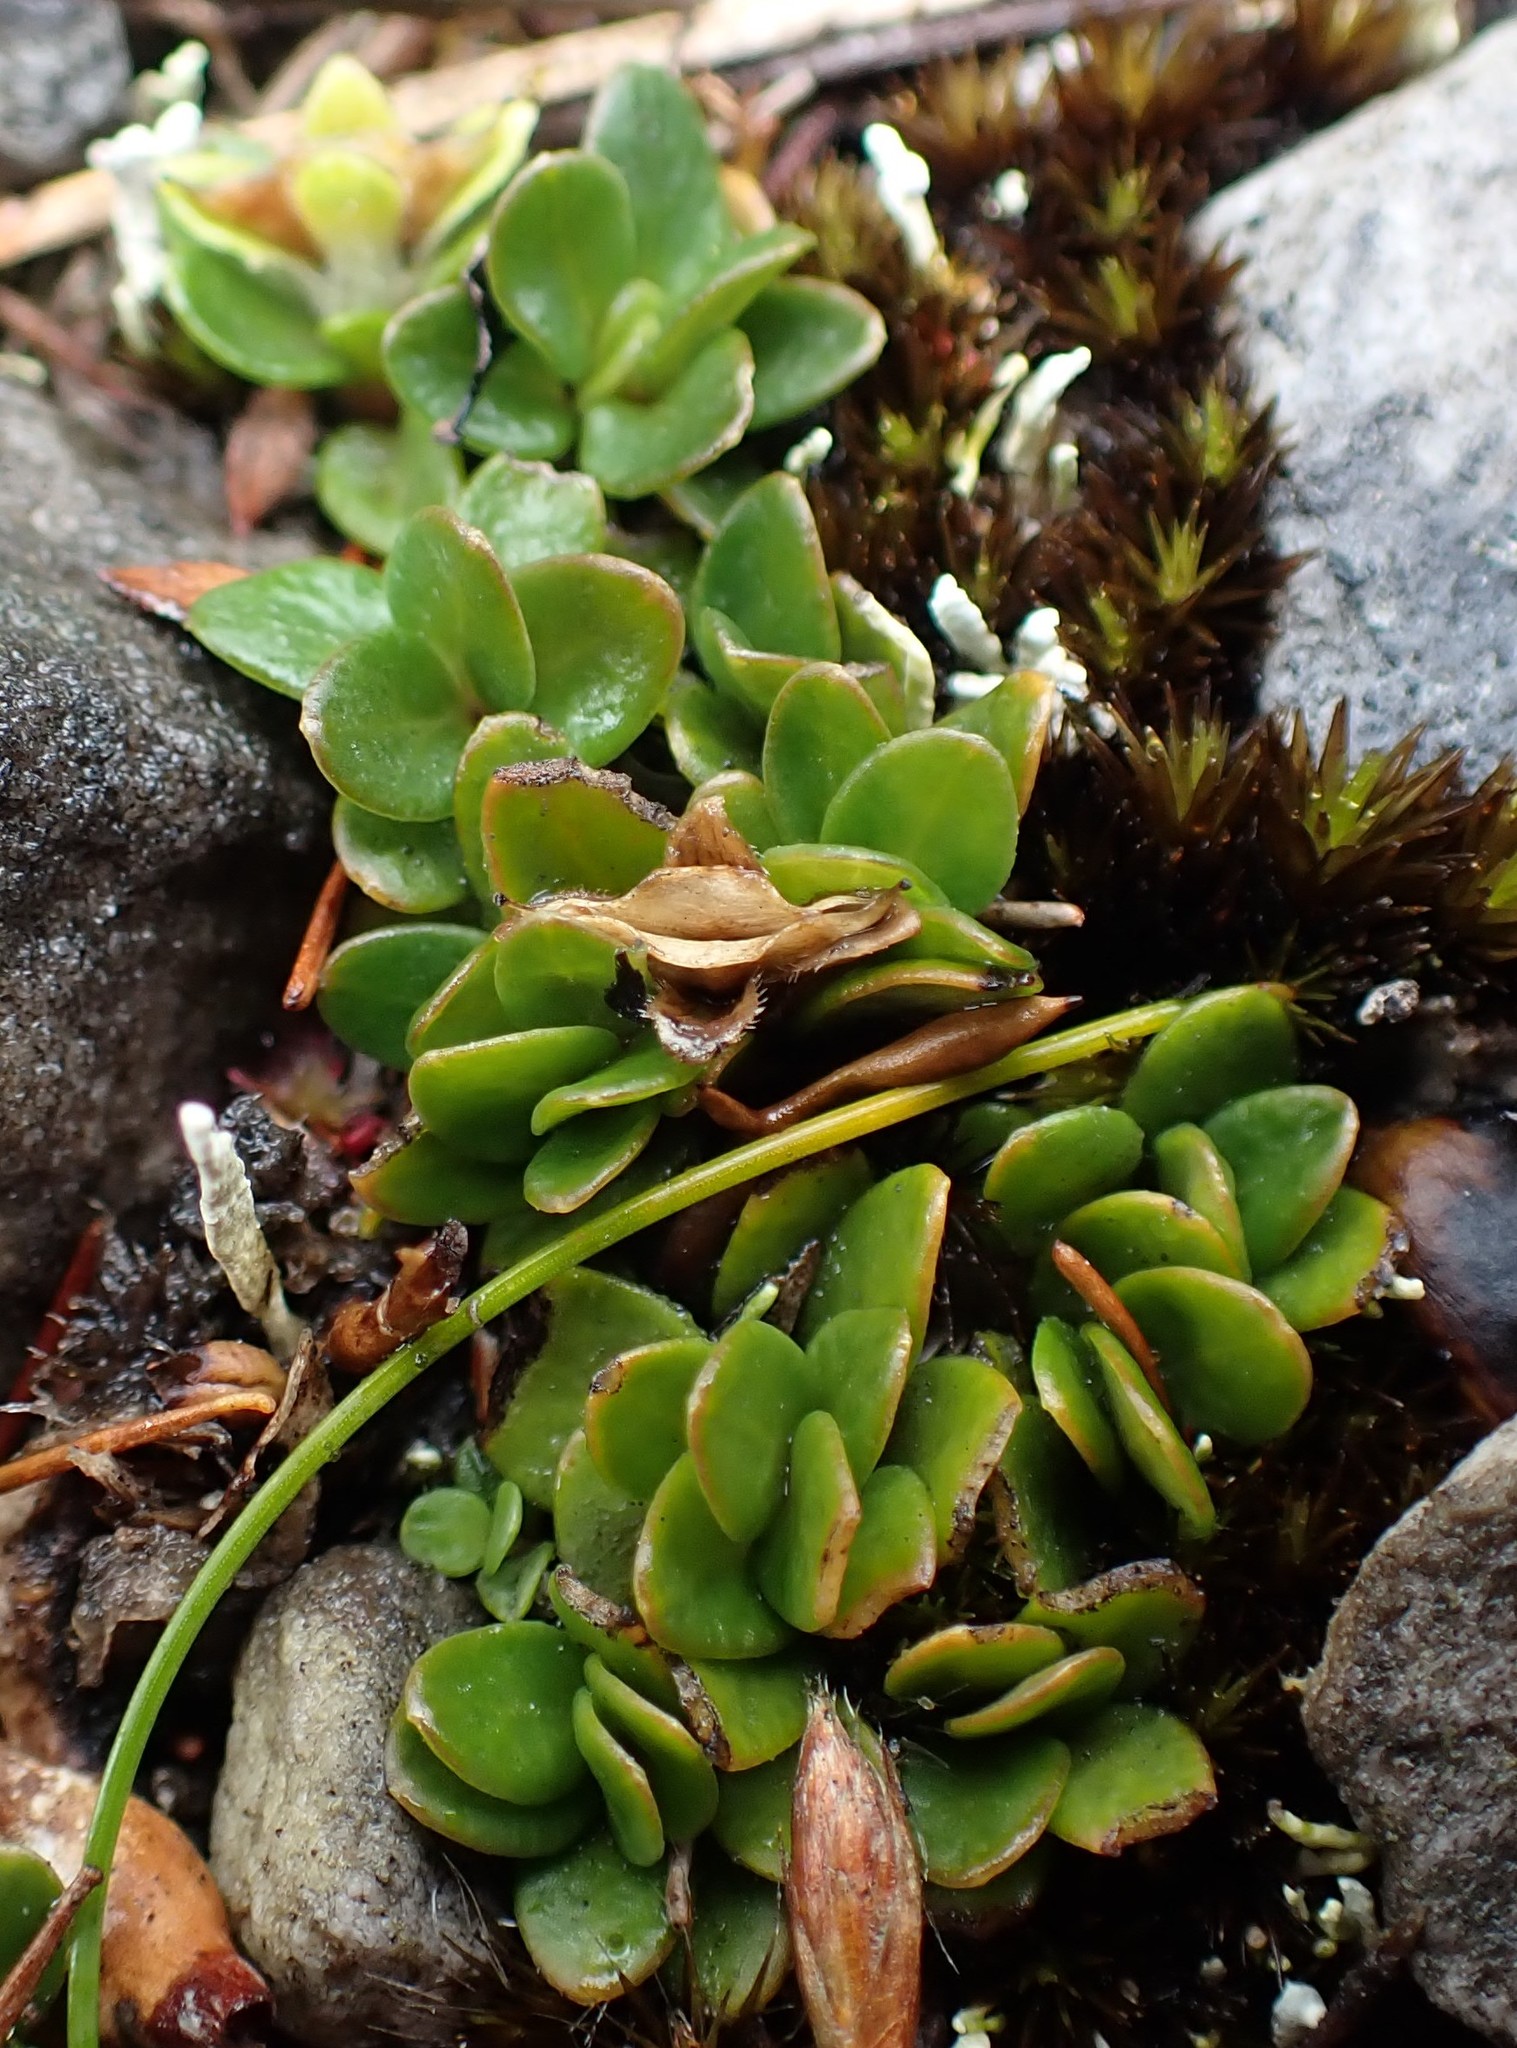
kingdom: Plantae
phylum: Tracheophyta
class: Magnoliopsida
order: Gentianales
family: Loganiaceae
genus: Schizacme
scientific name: Schizacme montana
